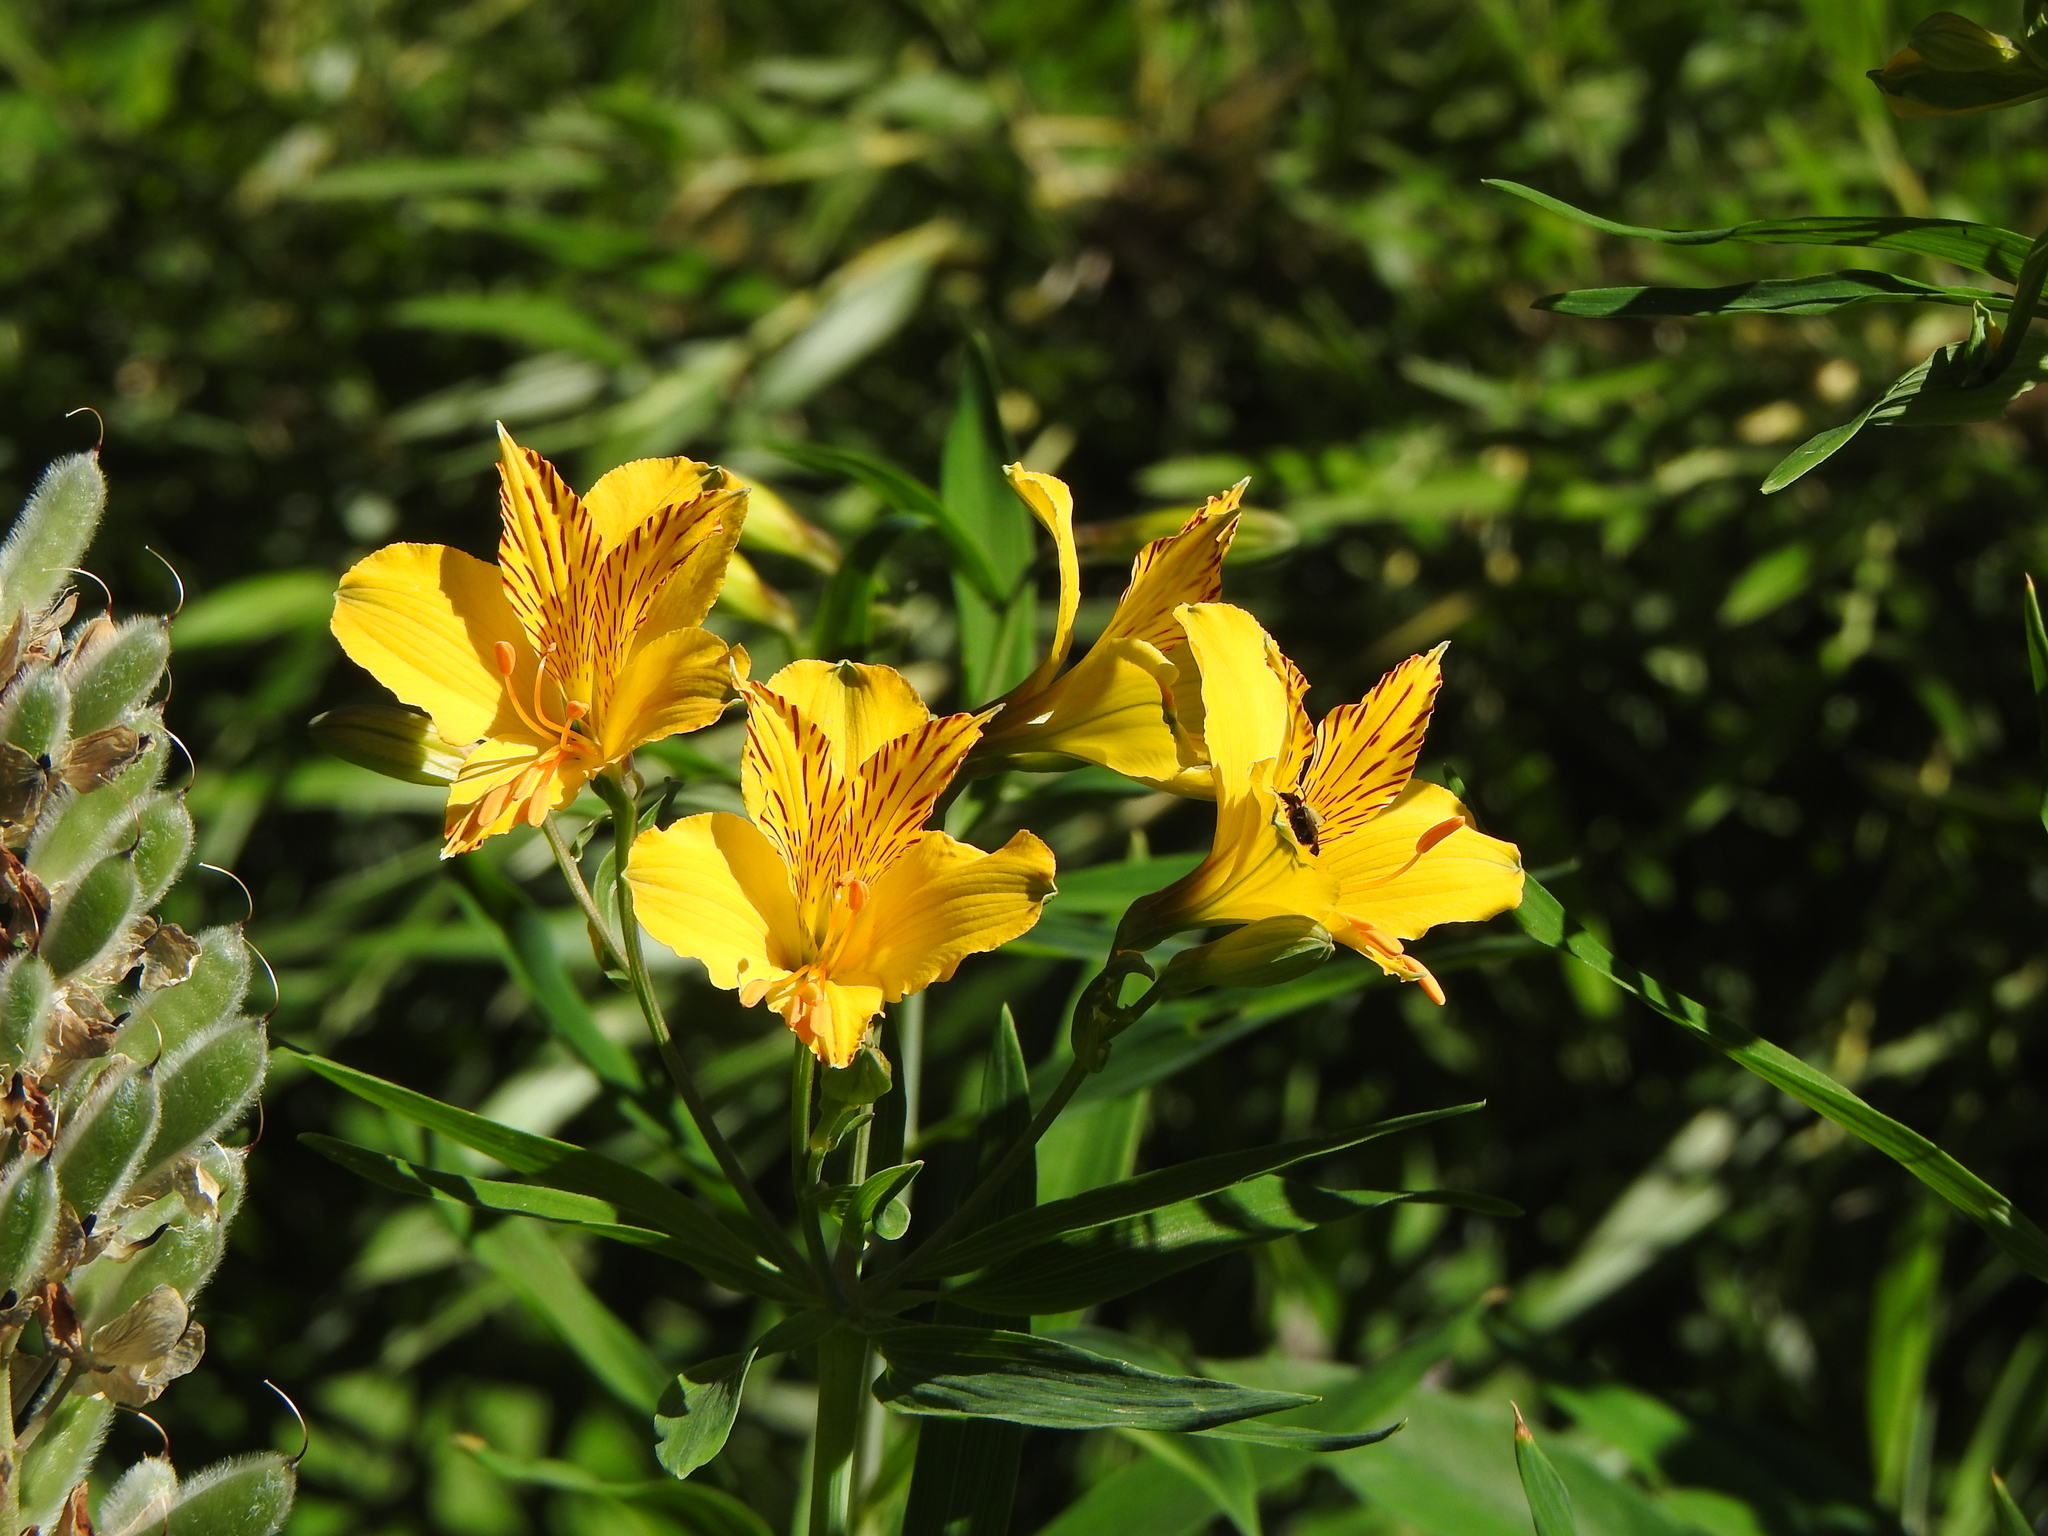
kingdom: Plantae
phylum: Tracheophyta
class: Liliopsida
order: Liliales
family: Alstroemeriaceae
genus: Alstroemeria
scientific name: Alstroemeria aurea
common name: Peruvian lily
